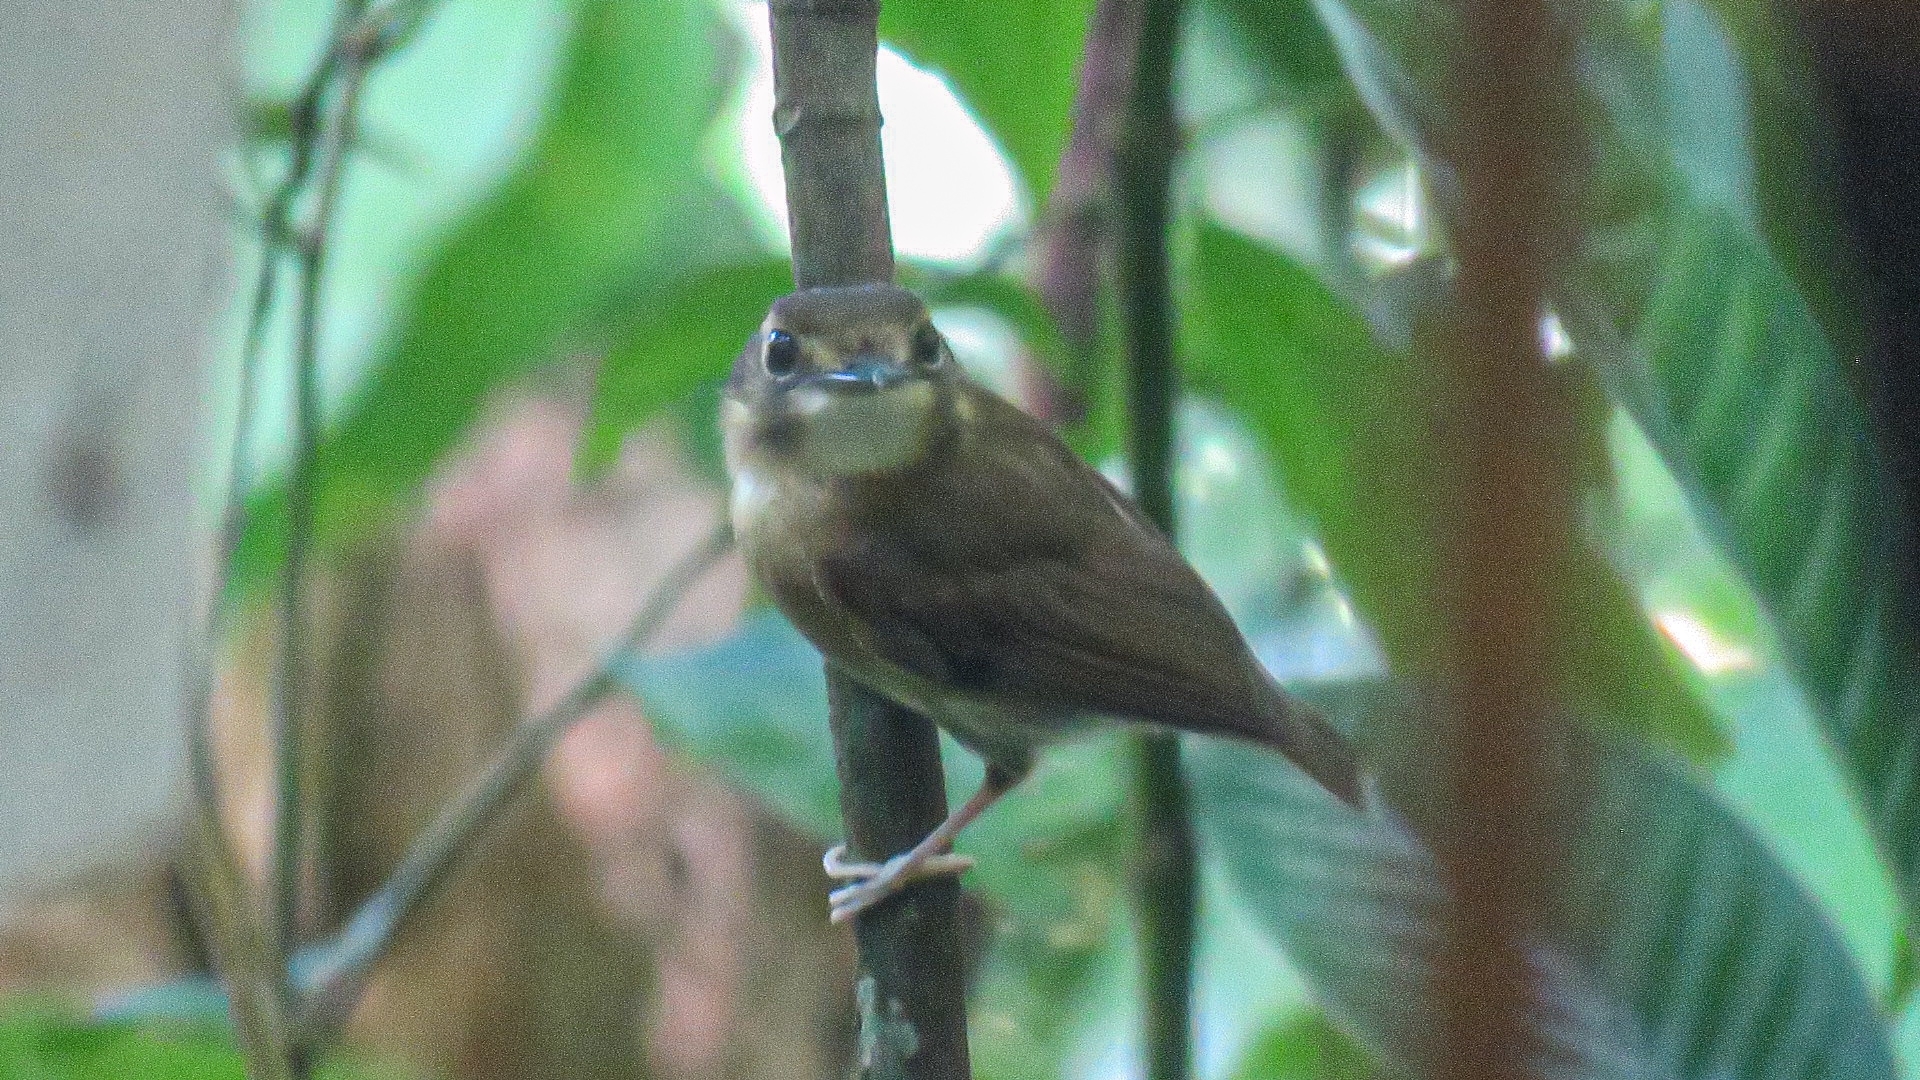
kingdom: Animalia
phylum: Chordata
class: Aves
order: Passeriformes
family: Tyrannidae
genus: Platyrinchus
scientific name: Platyrinchus cancrominus
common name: Stub-tailed spadebill
